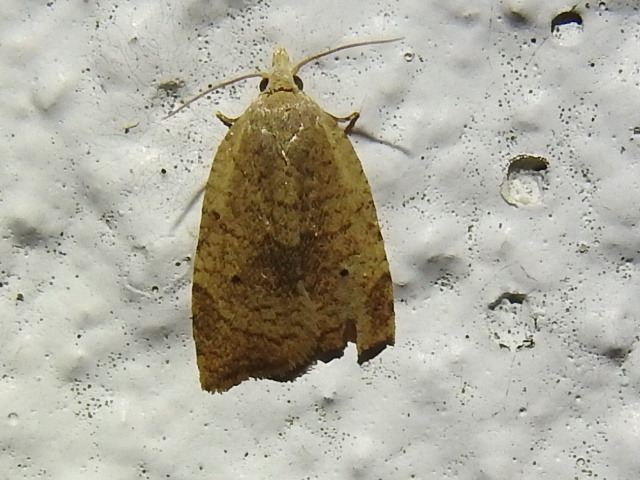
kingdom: Animalia
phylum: Arthropoda
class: Insecta
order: Lepidoptera
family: Tortricidae
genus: Coelostathma
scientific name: Coelostathma discopunctana
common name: Batman moth
